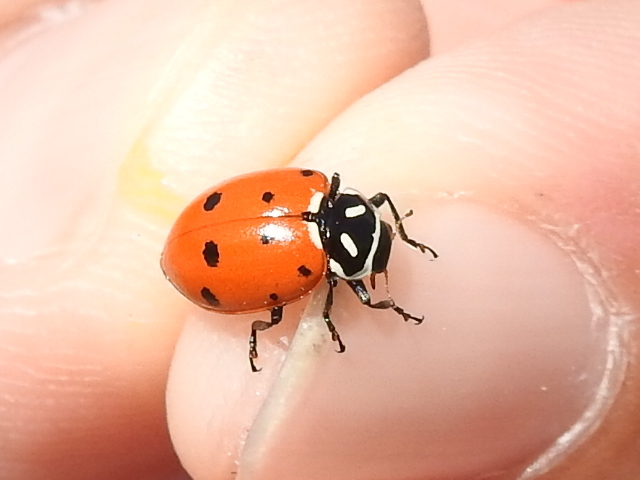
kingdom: Animalia
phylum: Arthropoda
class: Insecta
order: Coleoptera
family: Coccinellidae
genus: Hippodamia
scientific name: Hippodamia convergens
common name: Convergent lady beetle
